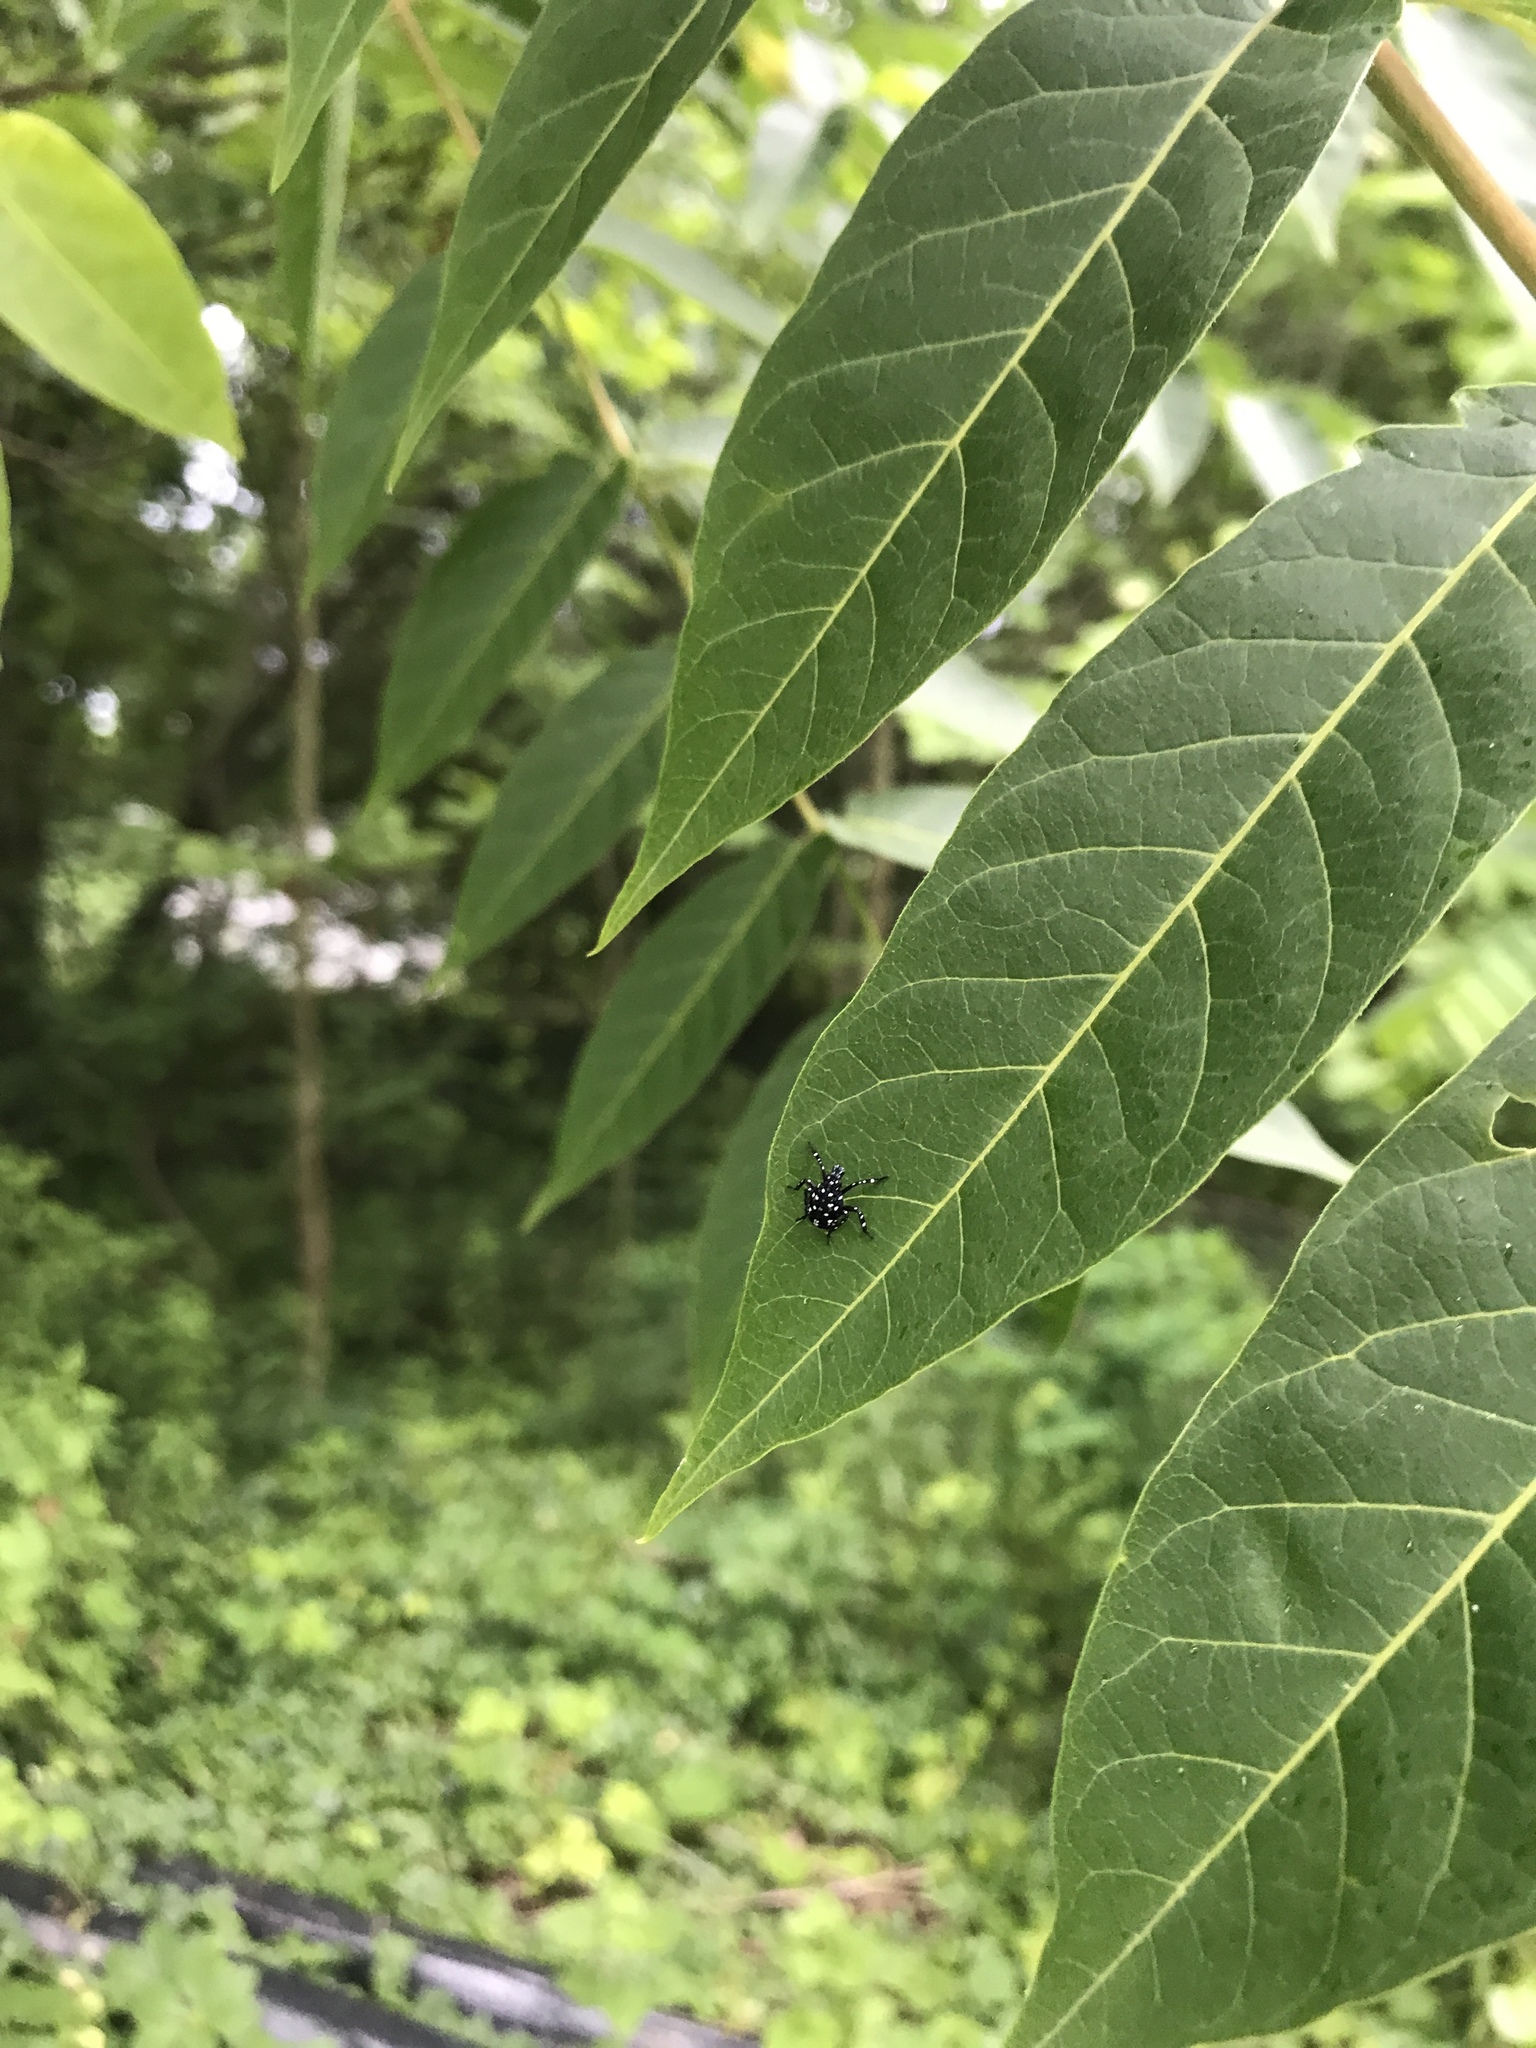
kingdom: Animalia
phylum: Arthropoda
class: Insecta
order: Hemiptera
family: Fulgoridae
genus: Lycorma
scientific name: Lycorma delicatula
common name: Spotted lanternfly
